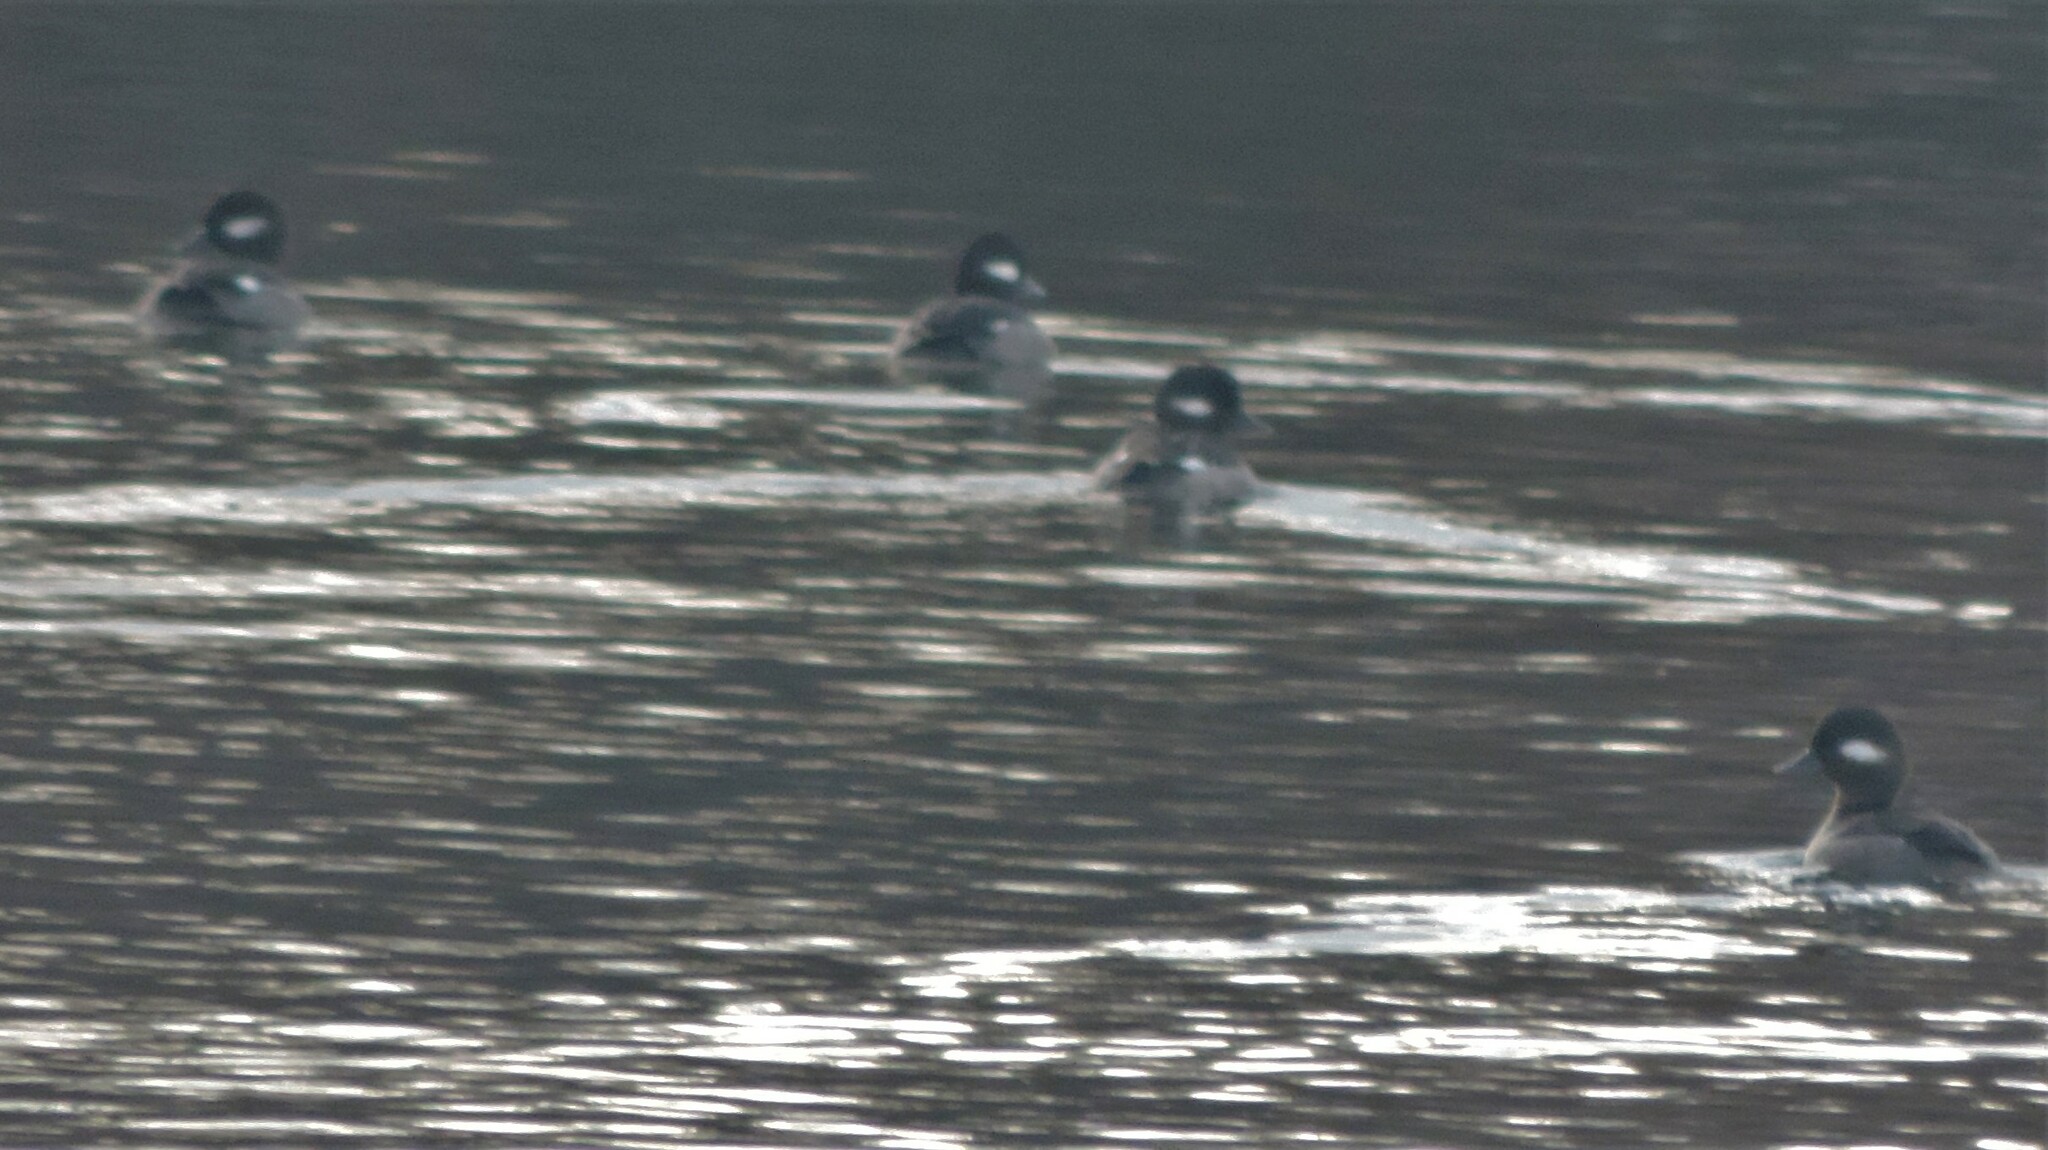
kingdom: Animalia
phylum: Chordata
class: Aves
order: Anseriformes
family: Anatidae
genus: Bucephala
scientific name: Bucephala albeola
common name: Bufflehead
